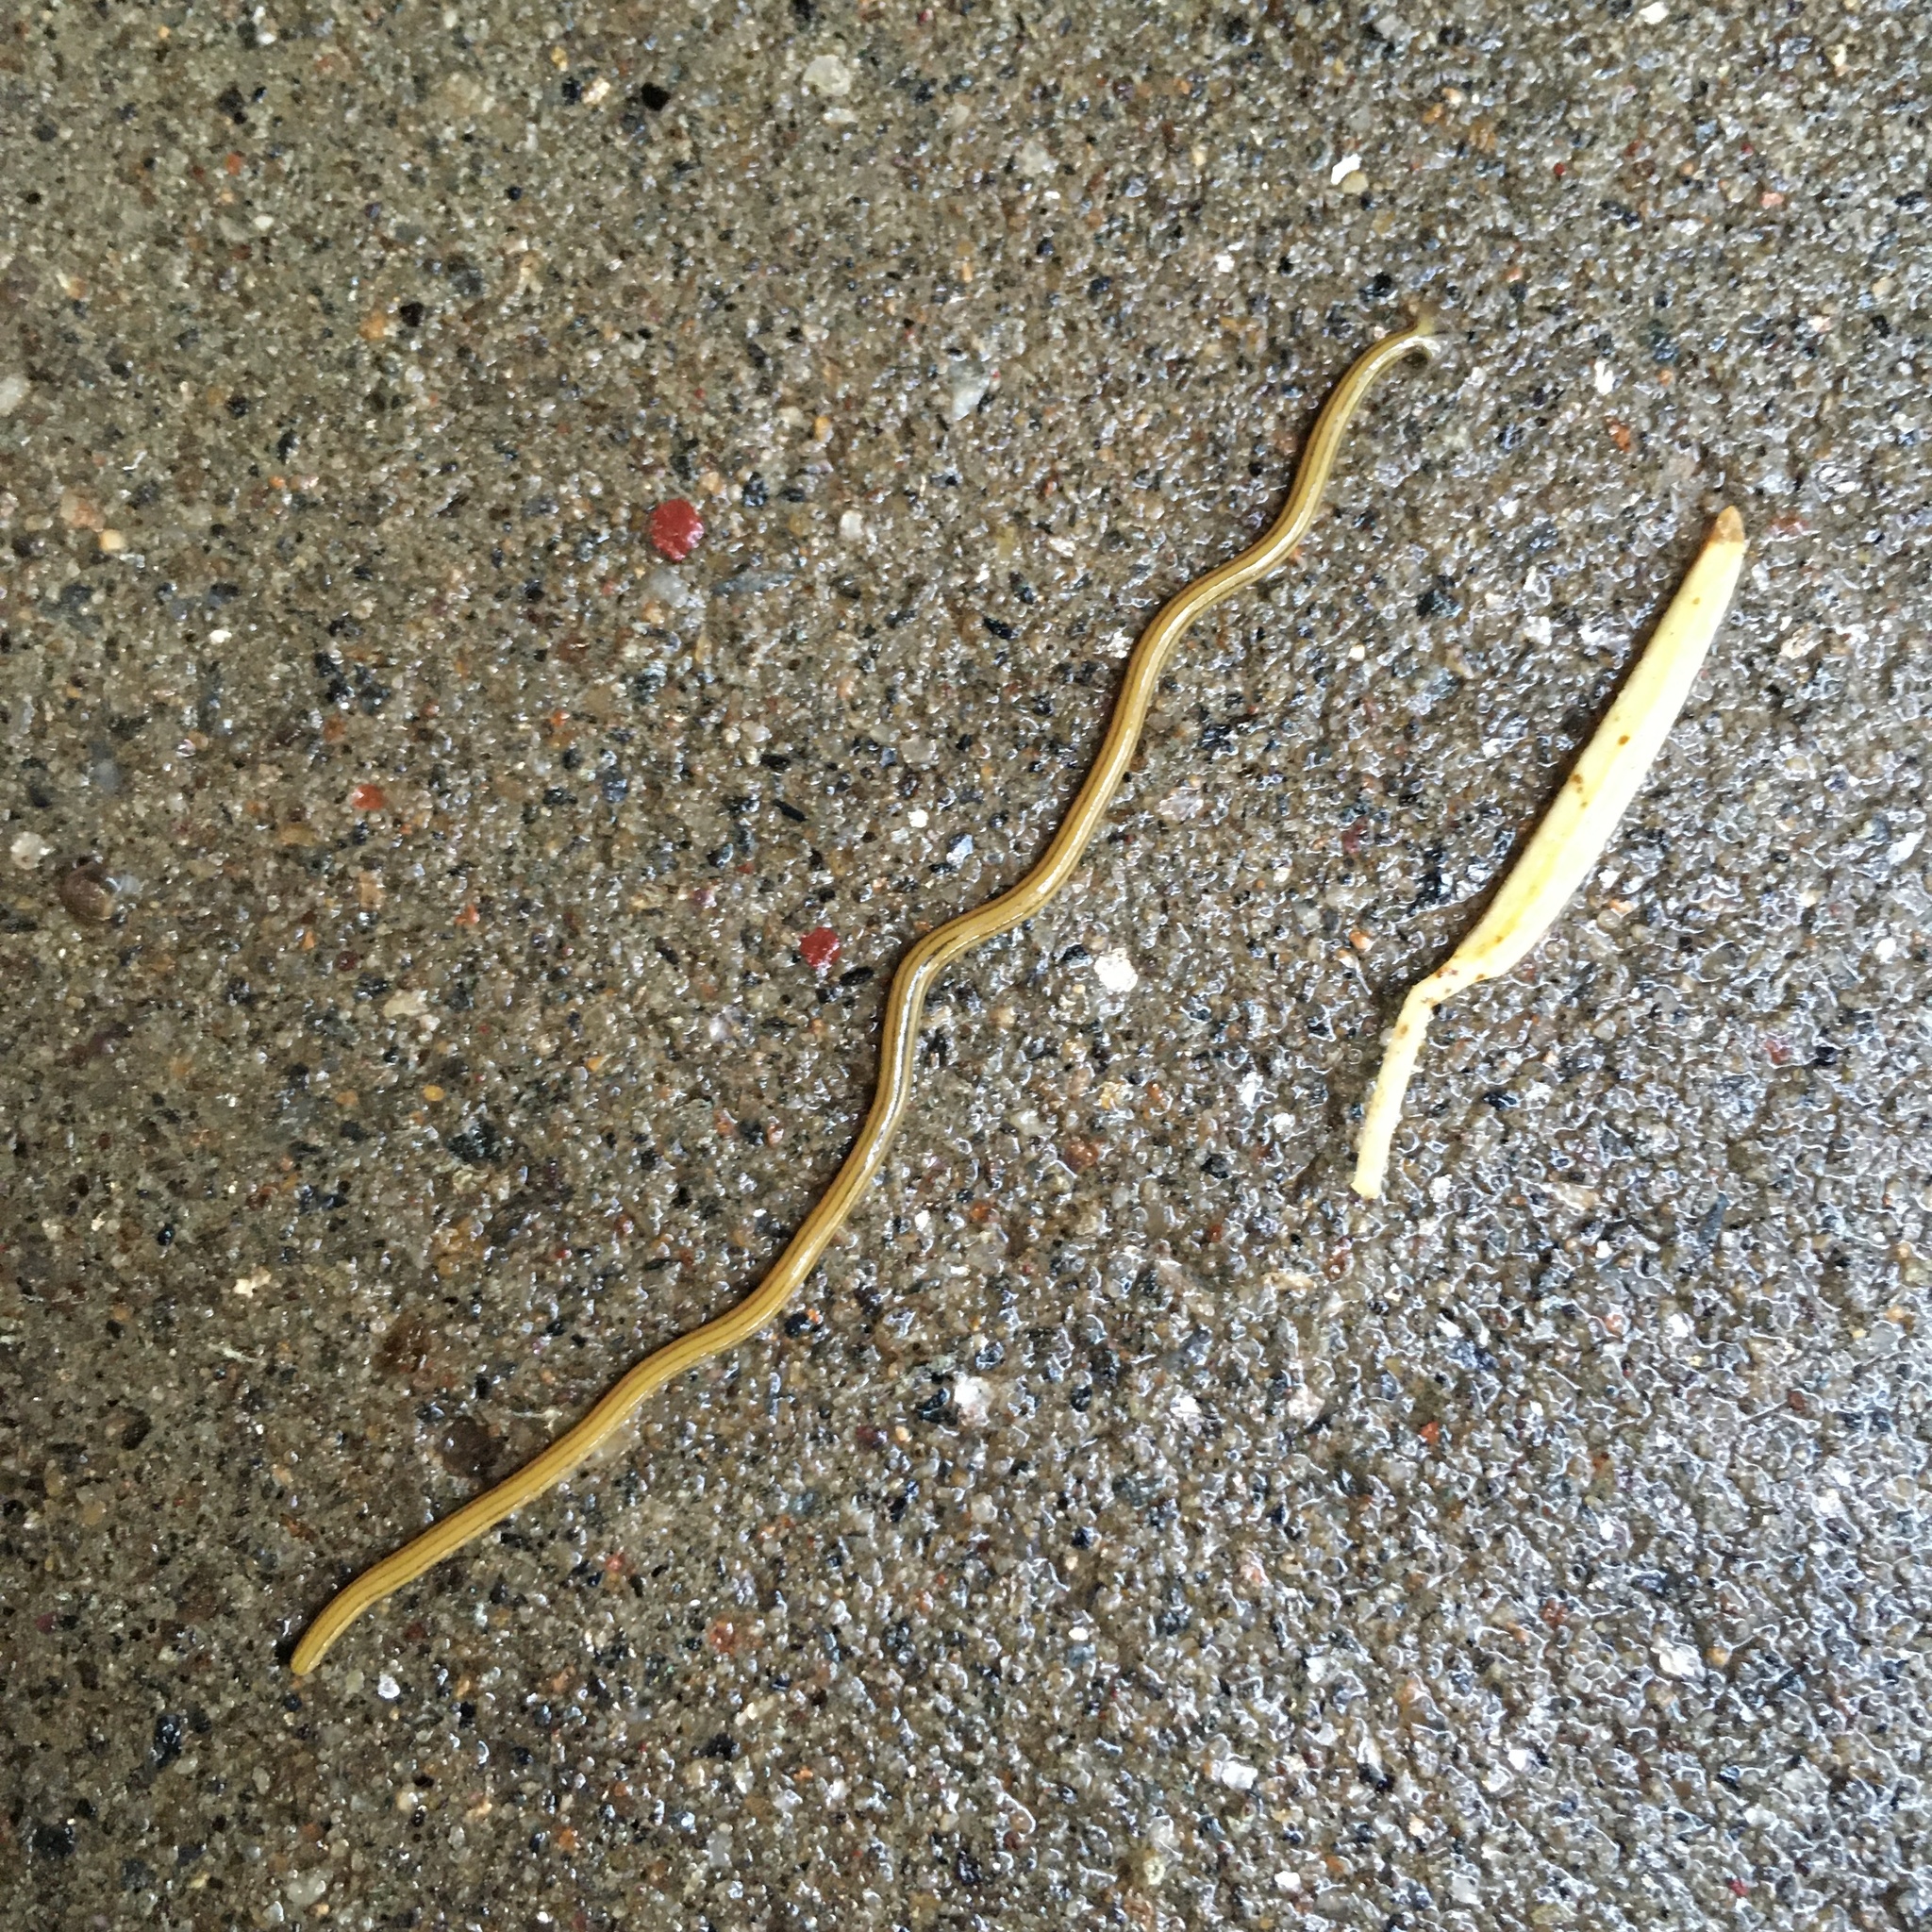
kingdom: Animalia
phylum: Platyhelminthes
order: Tricladida
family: Geoplanidae
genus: Diversibipalium
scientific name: Diversibipalium multilineatum
